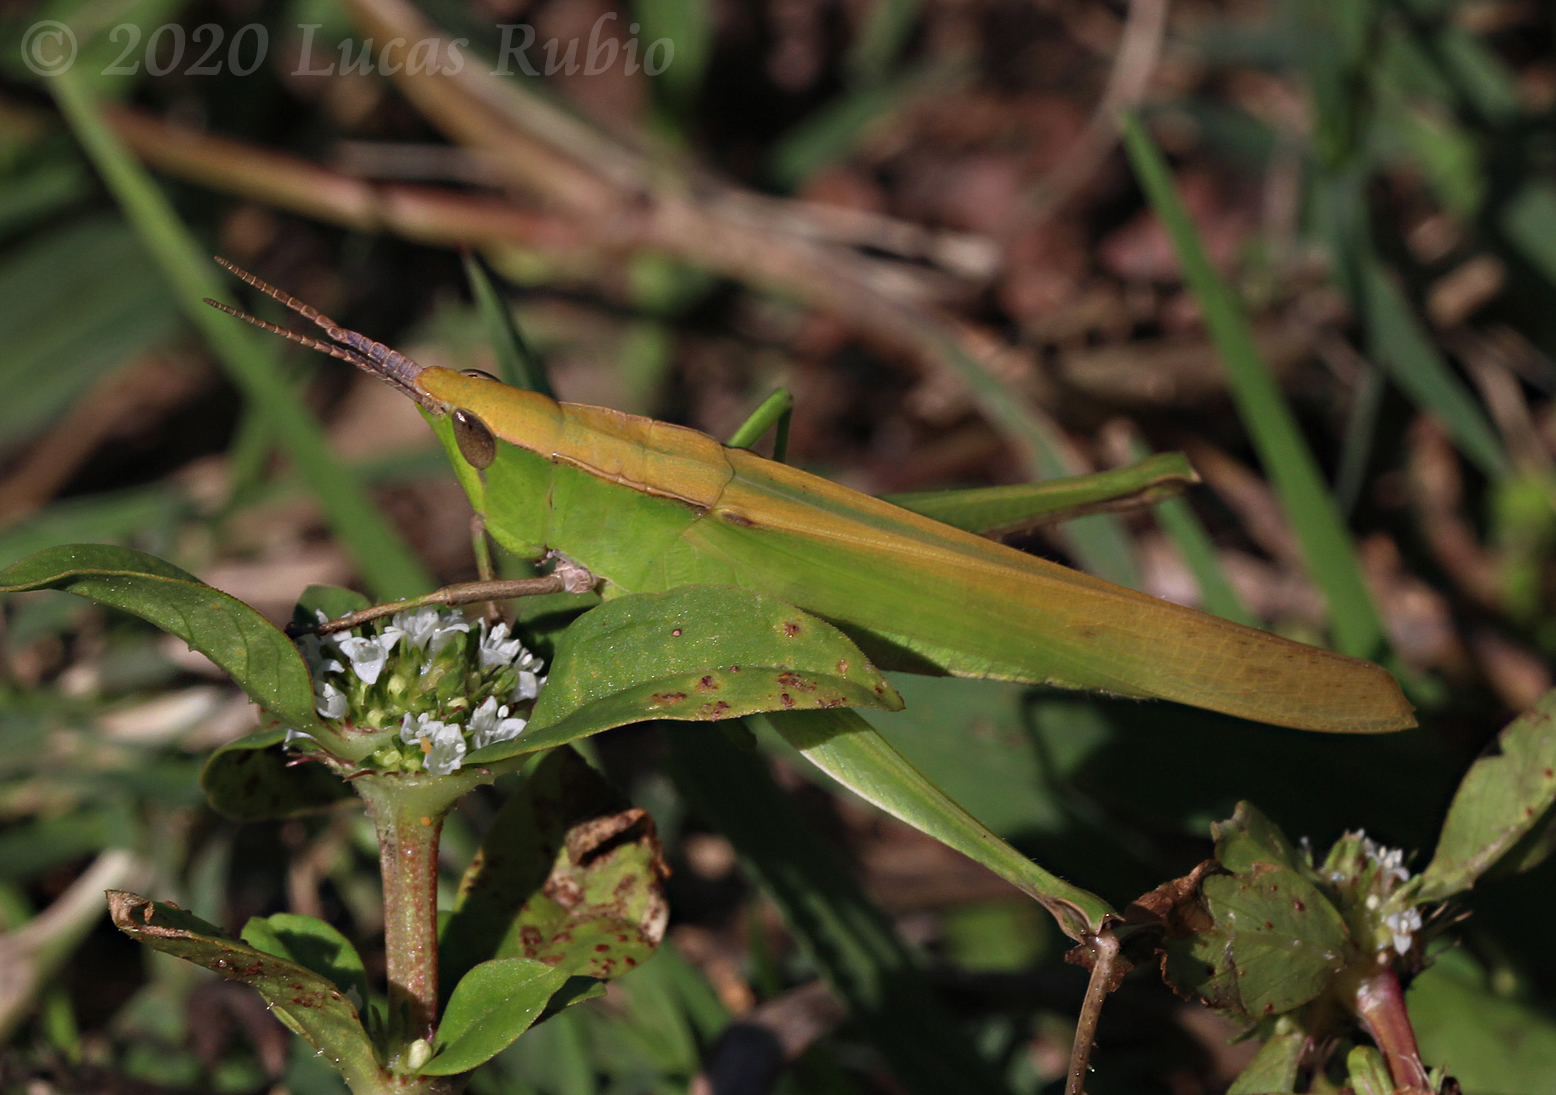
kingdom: Animalia
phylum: Arthropoda
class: Insecta
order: Orthoptera
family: Acrididae
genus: Metaleptea
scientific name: Metaleptea adspersa
